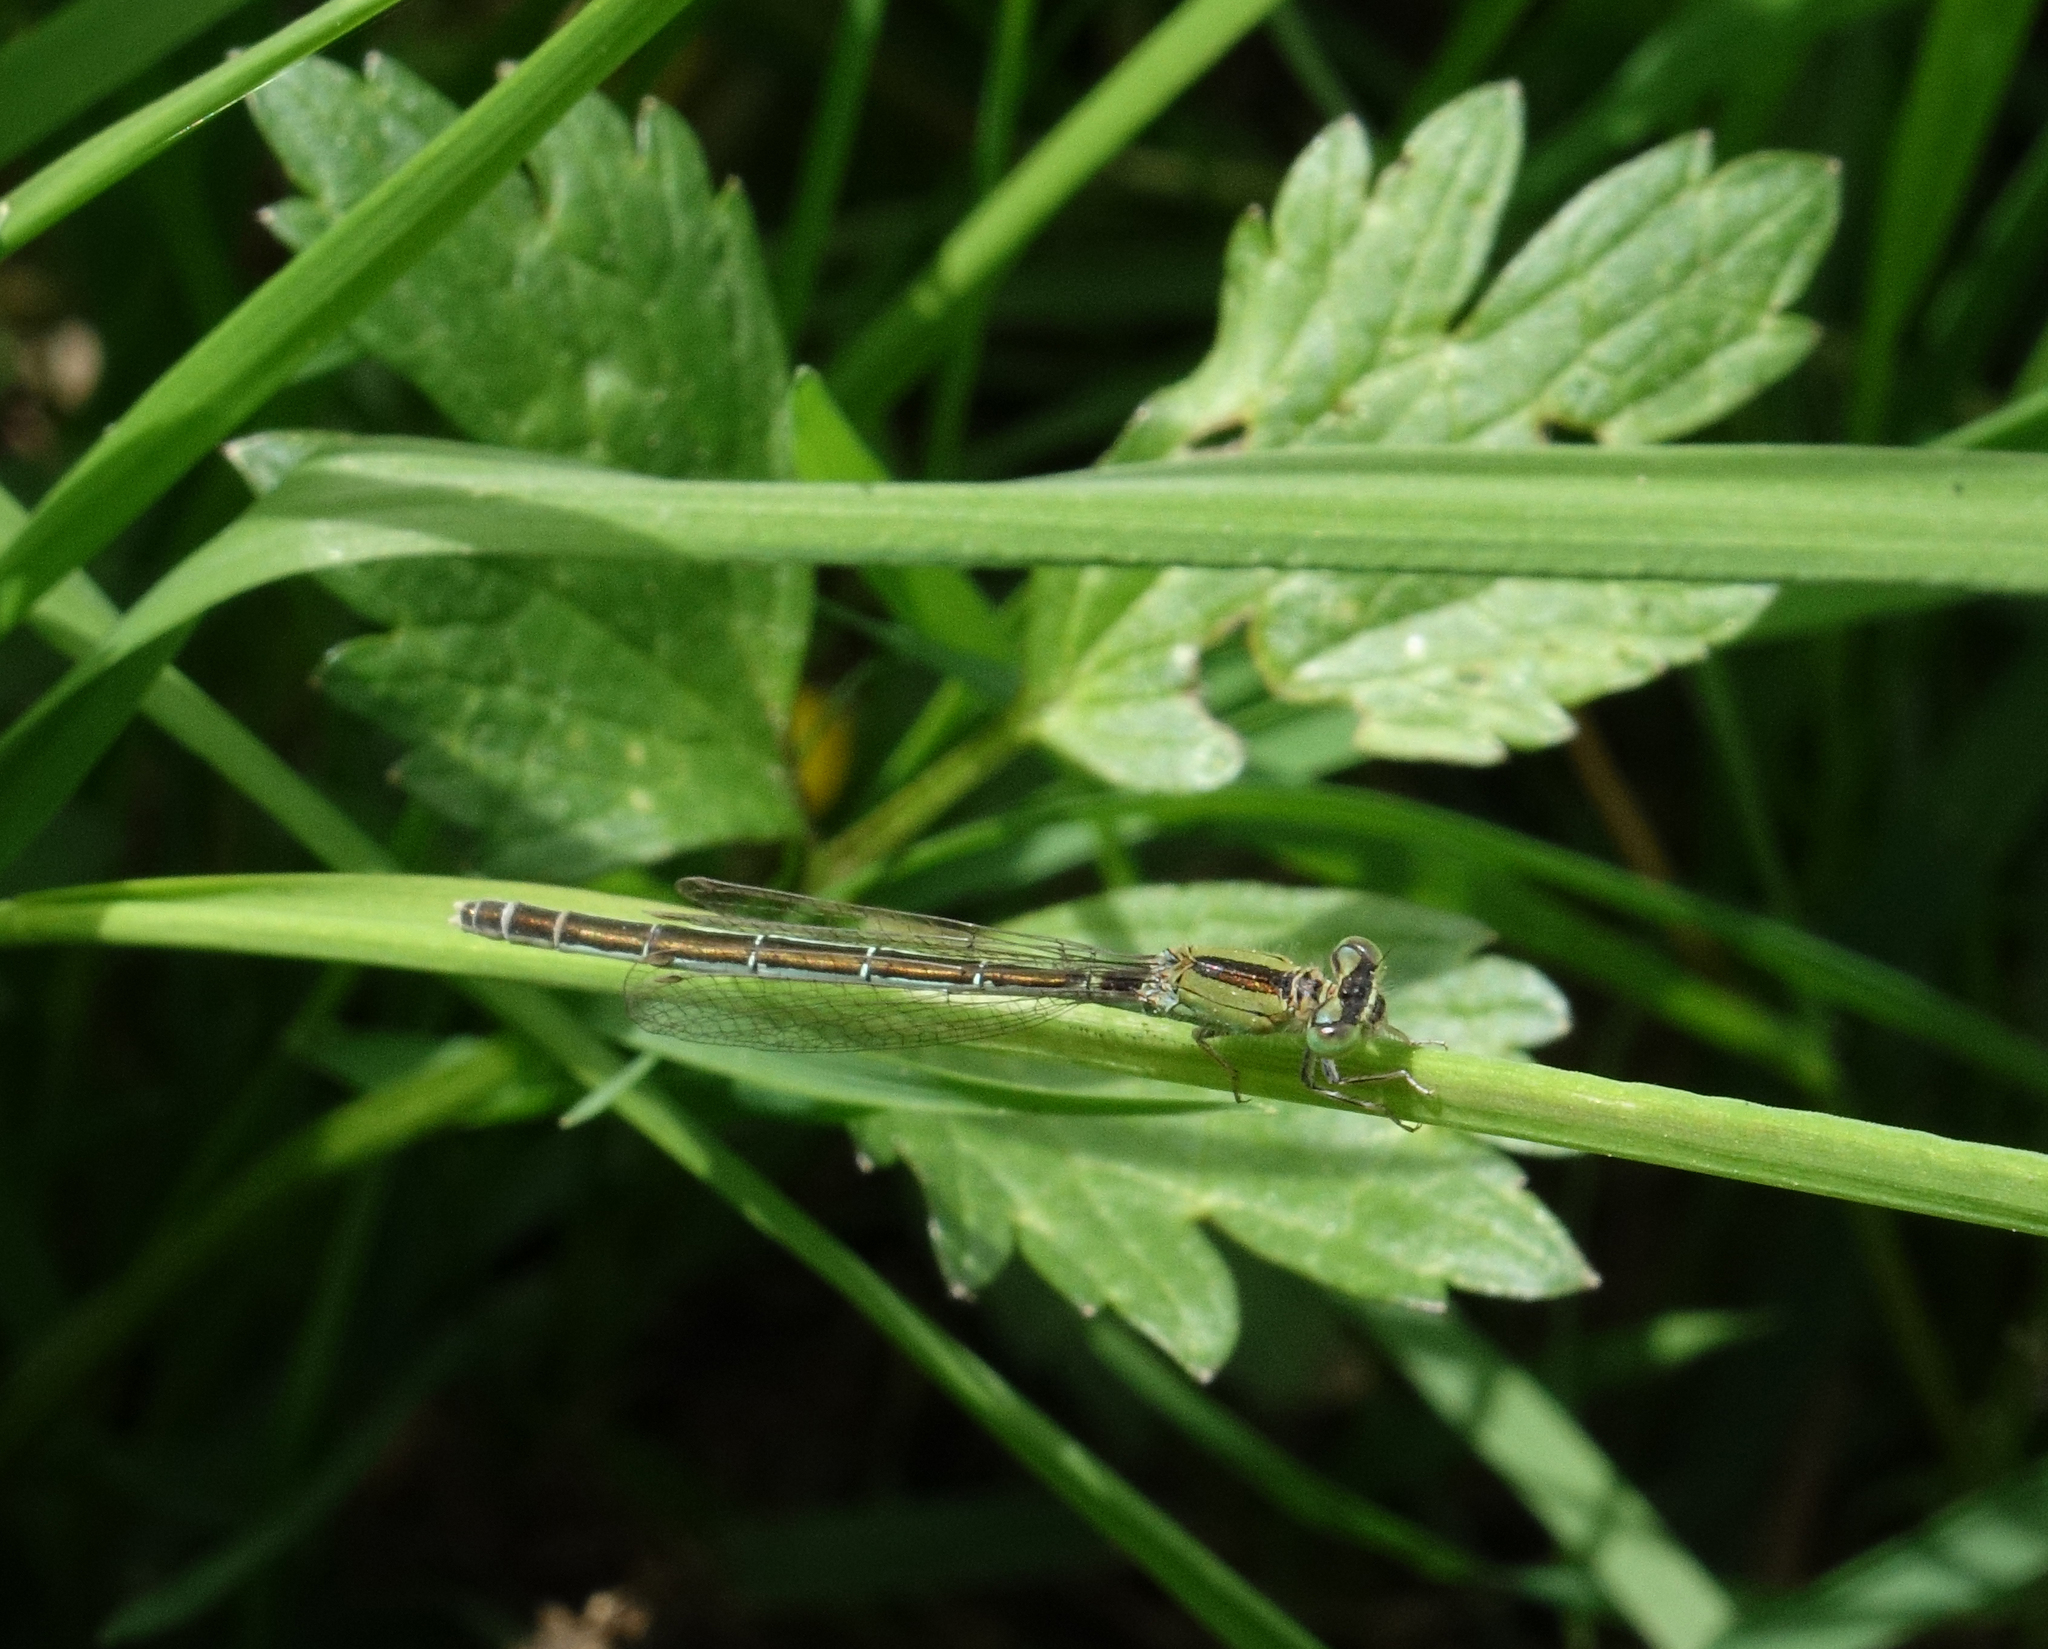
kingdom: Animalia
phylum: Arthropoda
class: Insecta
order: Odonata
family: Coenagrionidae
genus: Ischnura
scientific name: Ischnura pumilio
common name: Scarce blue-tailed damselfly
